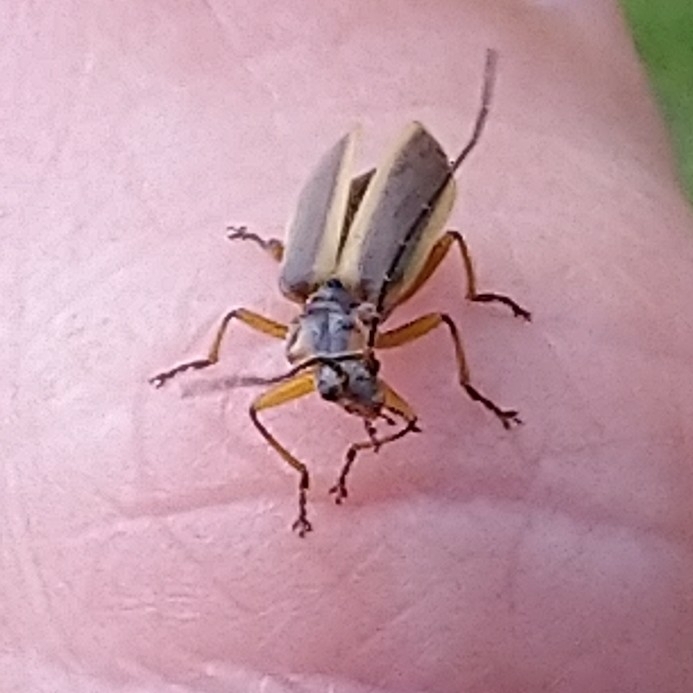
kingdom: Animalia
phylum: Arthropoda
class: Insecta
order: Coleoptera
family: Cantharidae
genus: Afronycha
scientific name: Afronycha
